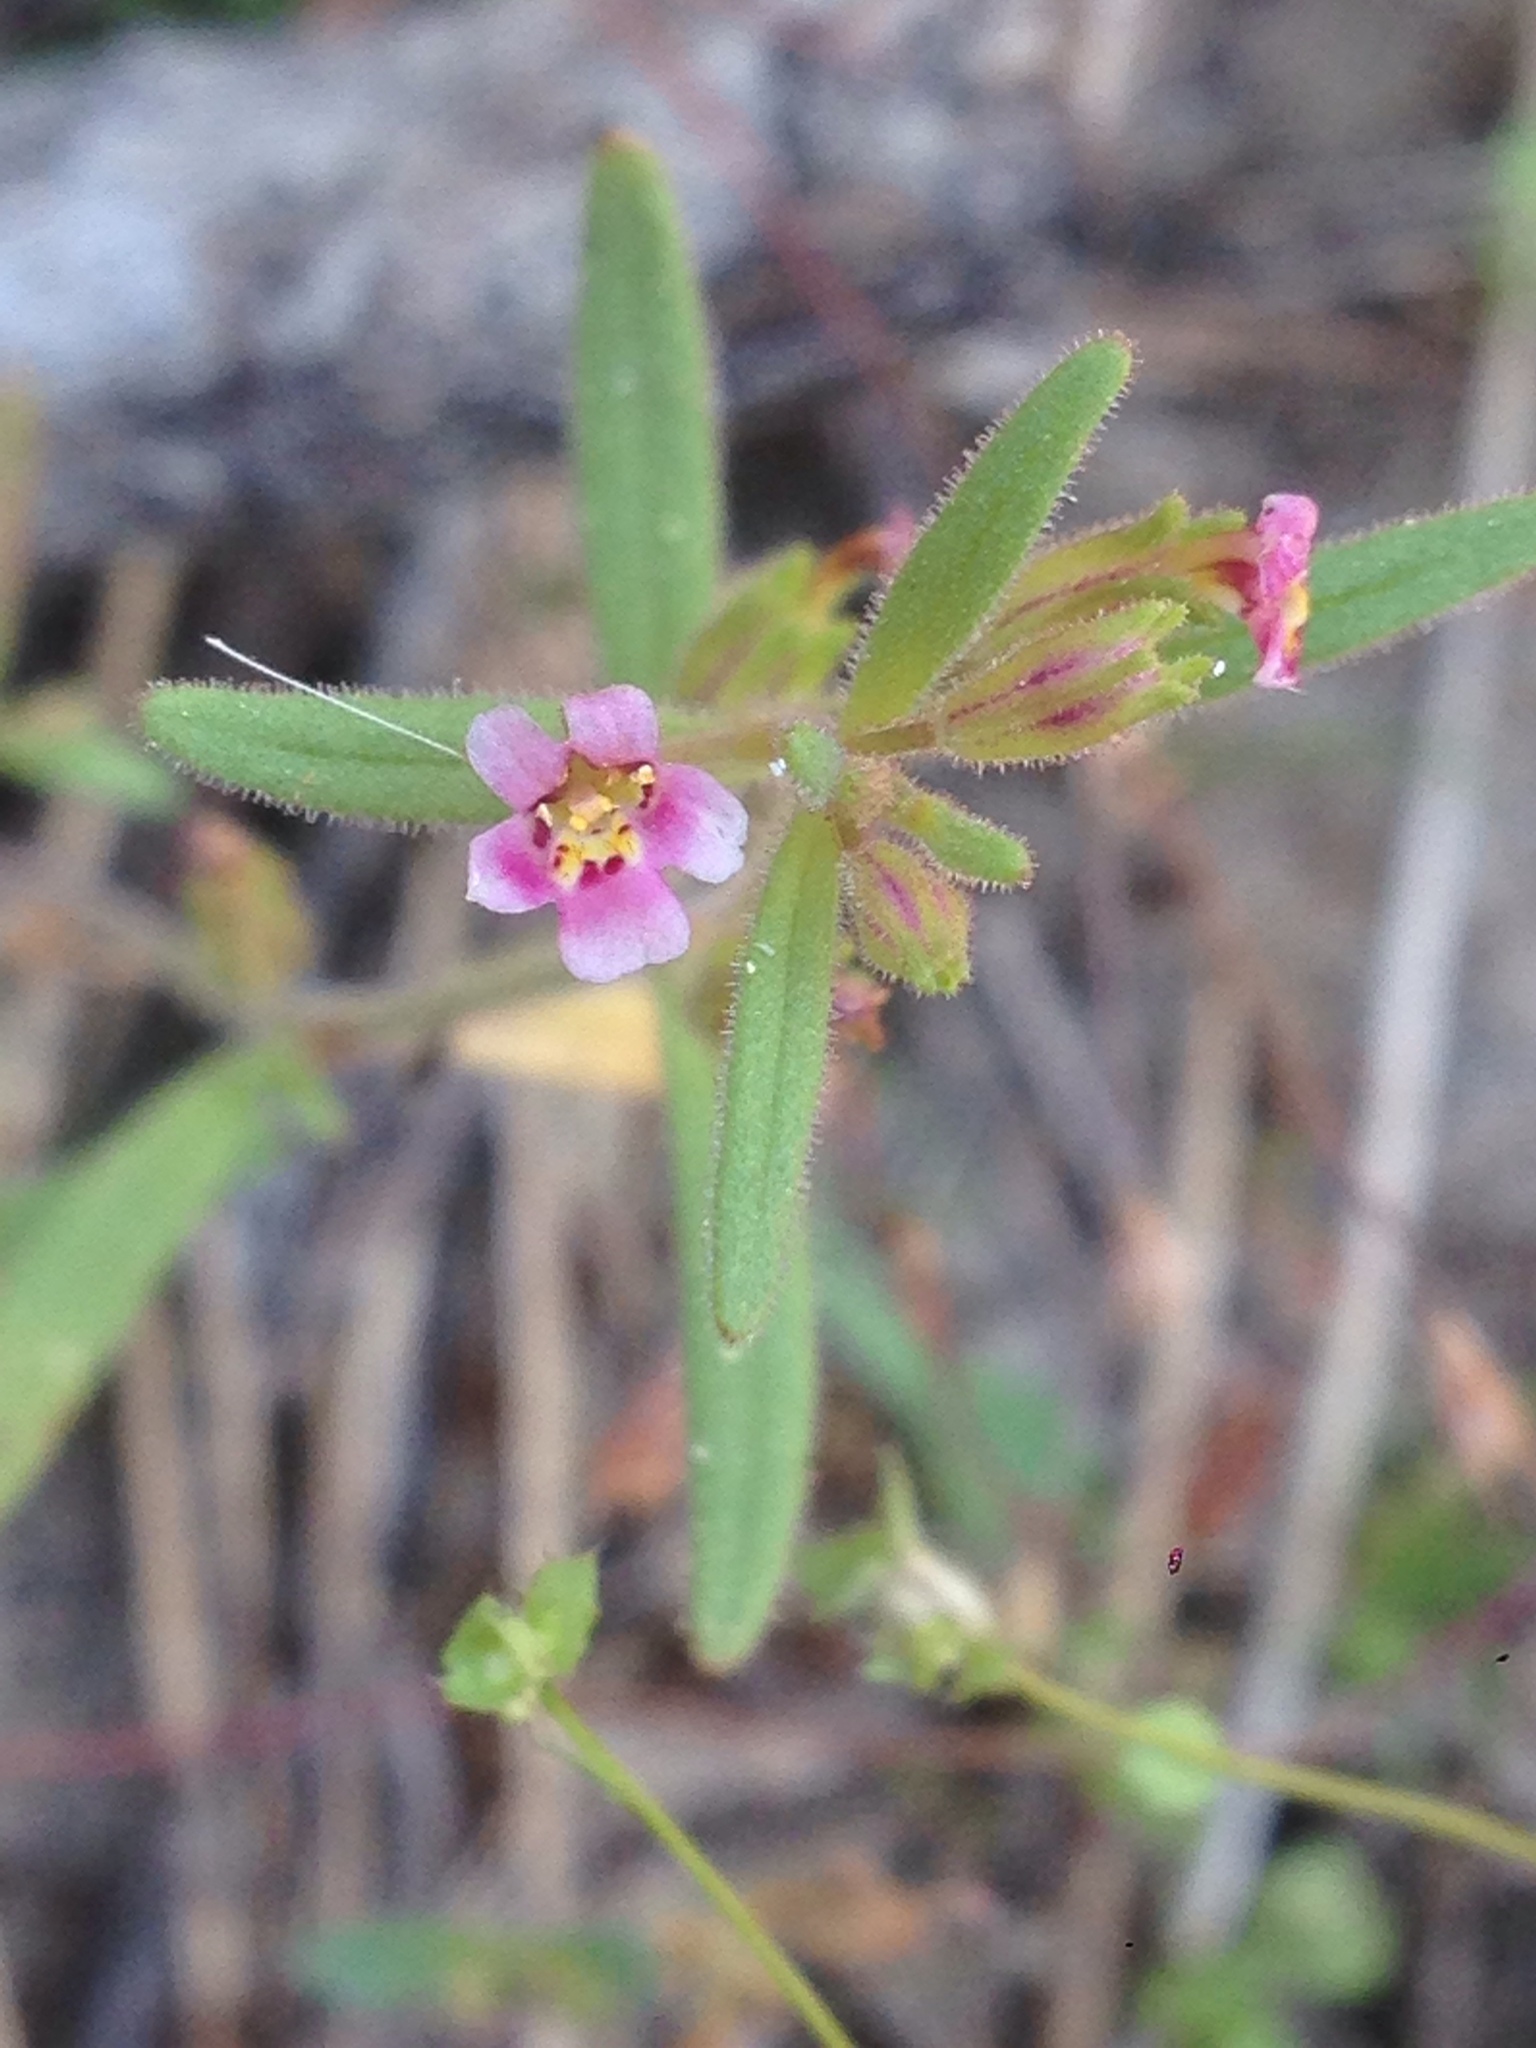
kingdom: Plantae
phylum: Tracheophyta
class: Magnoliopsida
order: Lamiales
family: Phrymaceae
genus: Erythranthe
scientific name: Erythranthe breweri
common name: Brewer's monkeyflower
